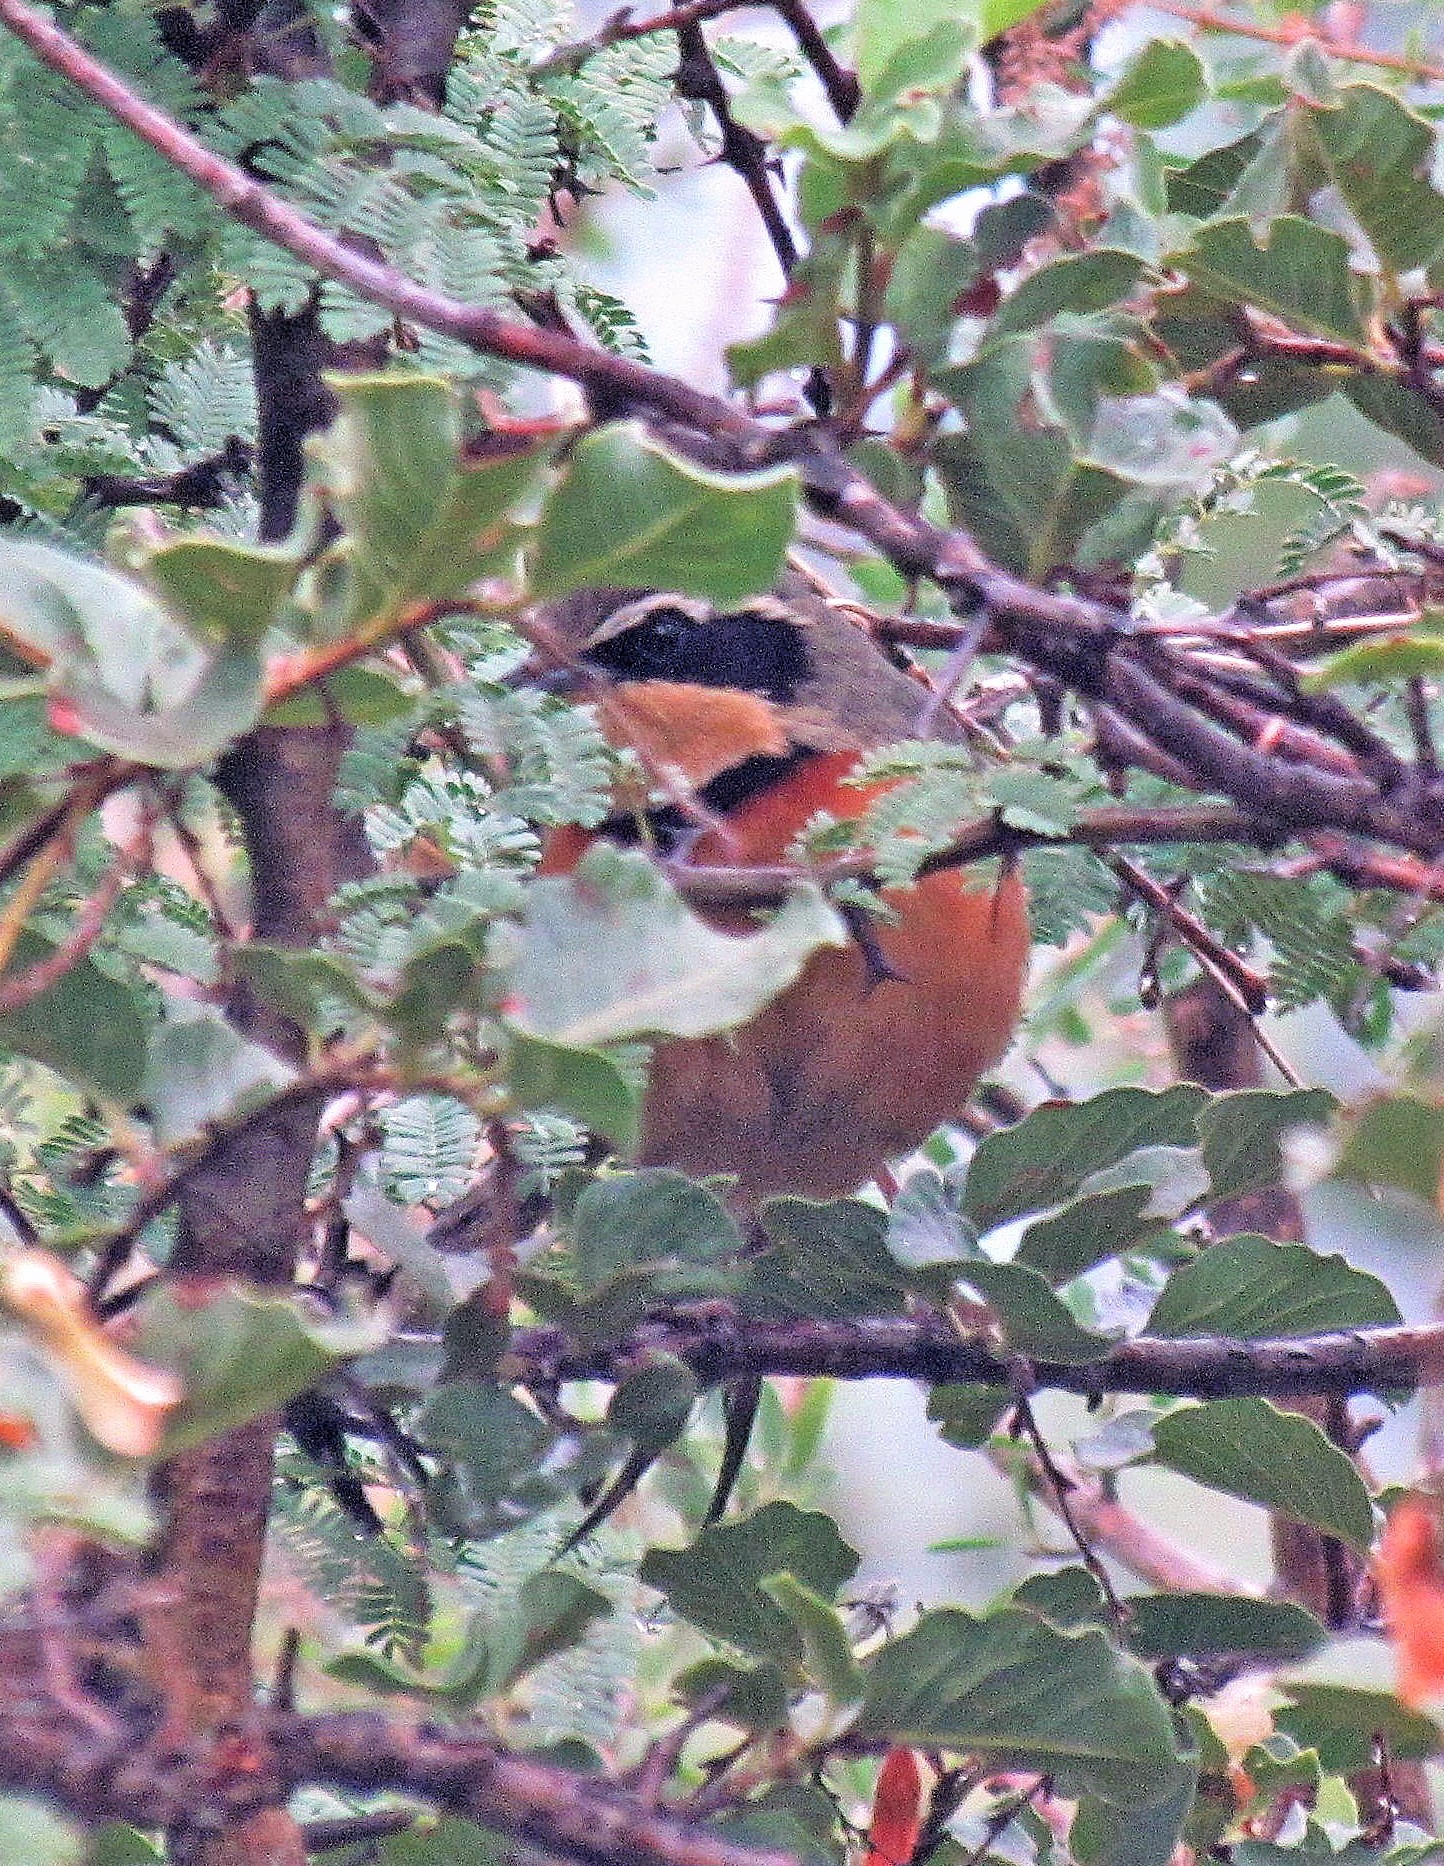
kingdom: Animalia
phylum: Chordata
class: Aves
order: Passeriformes
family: Melanopareiidae
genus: Melanopareia
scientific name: Melanopareia maximiliani
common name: Olive-crowned crescentchest
